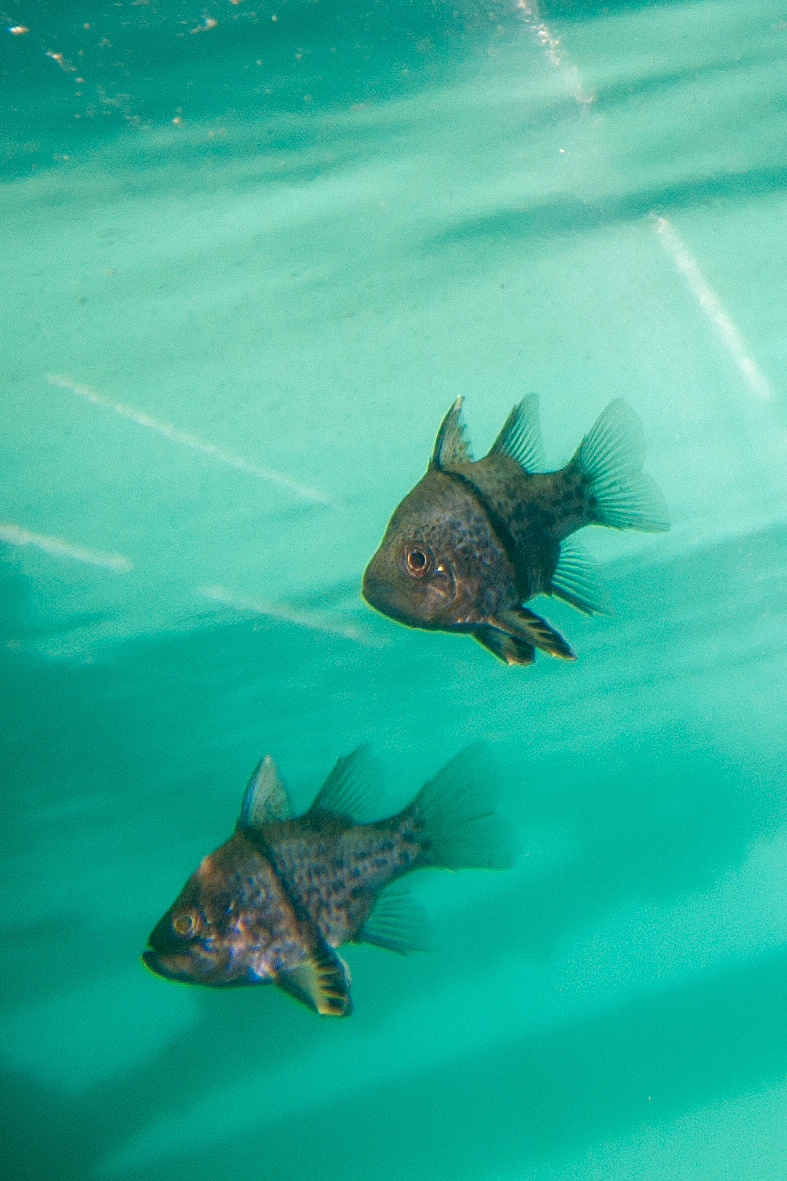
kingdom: Animalia
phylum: Chordata
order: Perciformes
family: Apogonidae
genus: Sphaeramia
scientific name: Sphaeramia orbicularis
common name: Polka-dot cardinalfish
